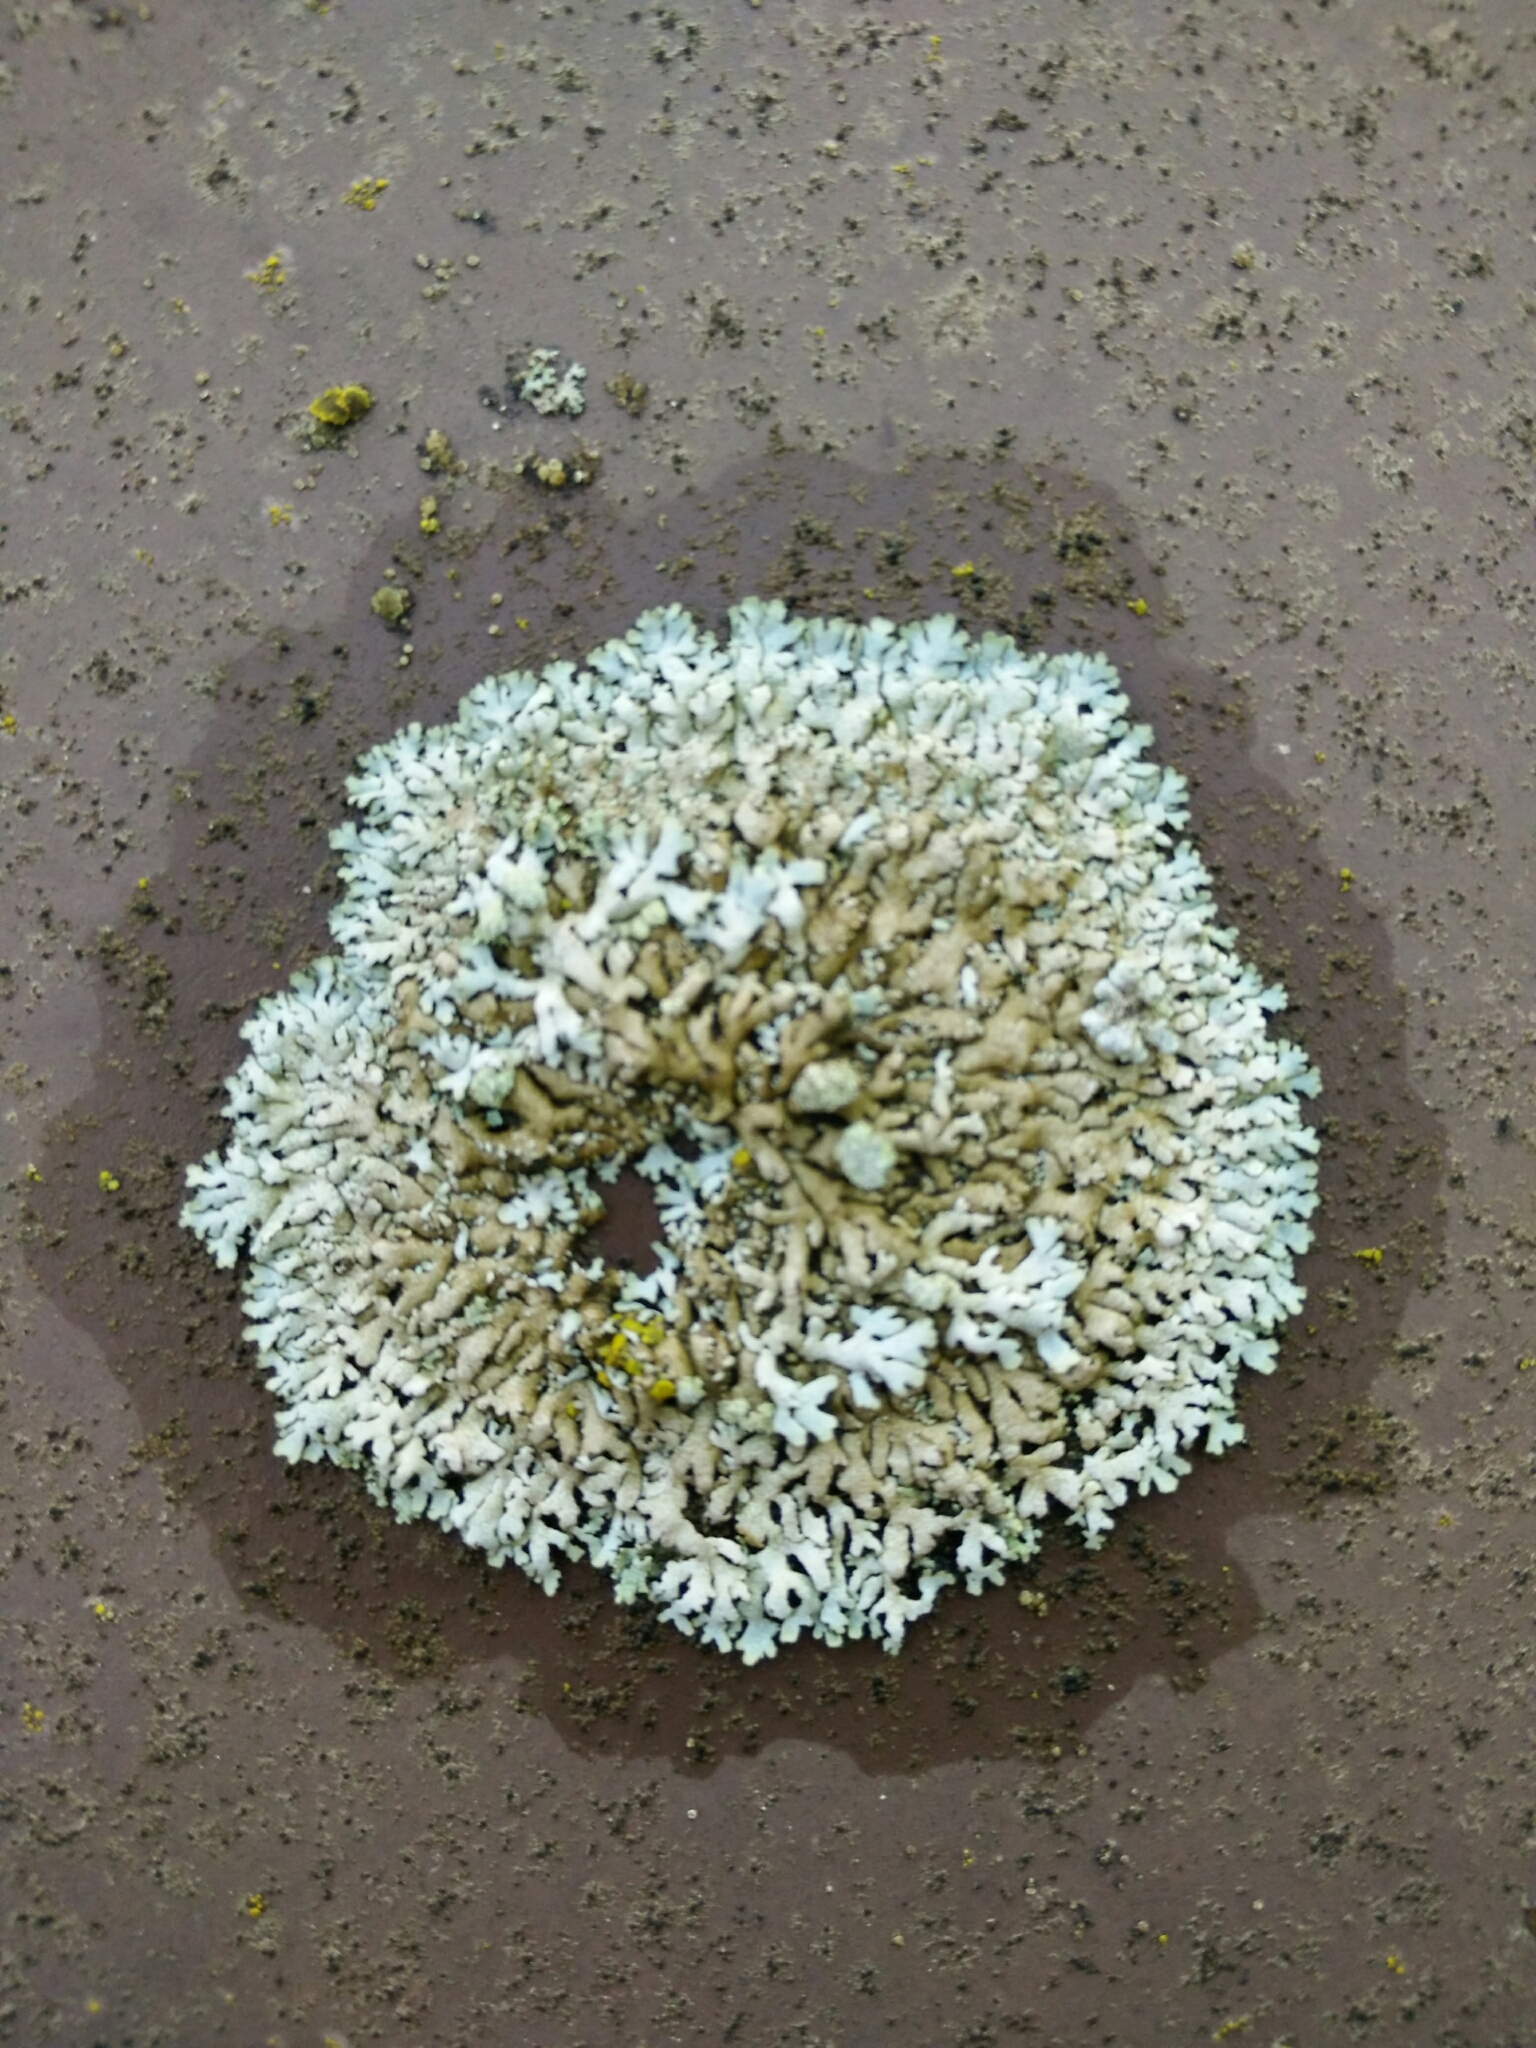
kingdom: Fungi
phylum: Ascomycota
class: Lecanoromycetes
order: Caliciales
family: Physciaceae
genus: Physcia
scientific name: Physcia caesia
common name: Blue-gray rosette lichen
